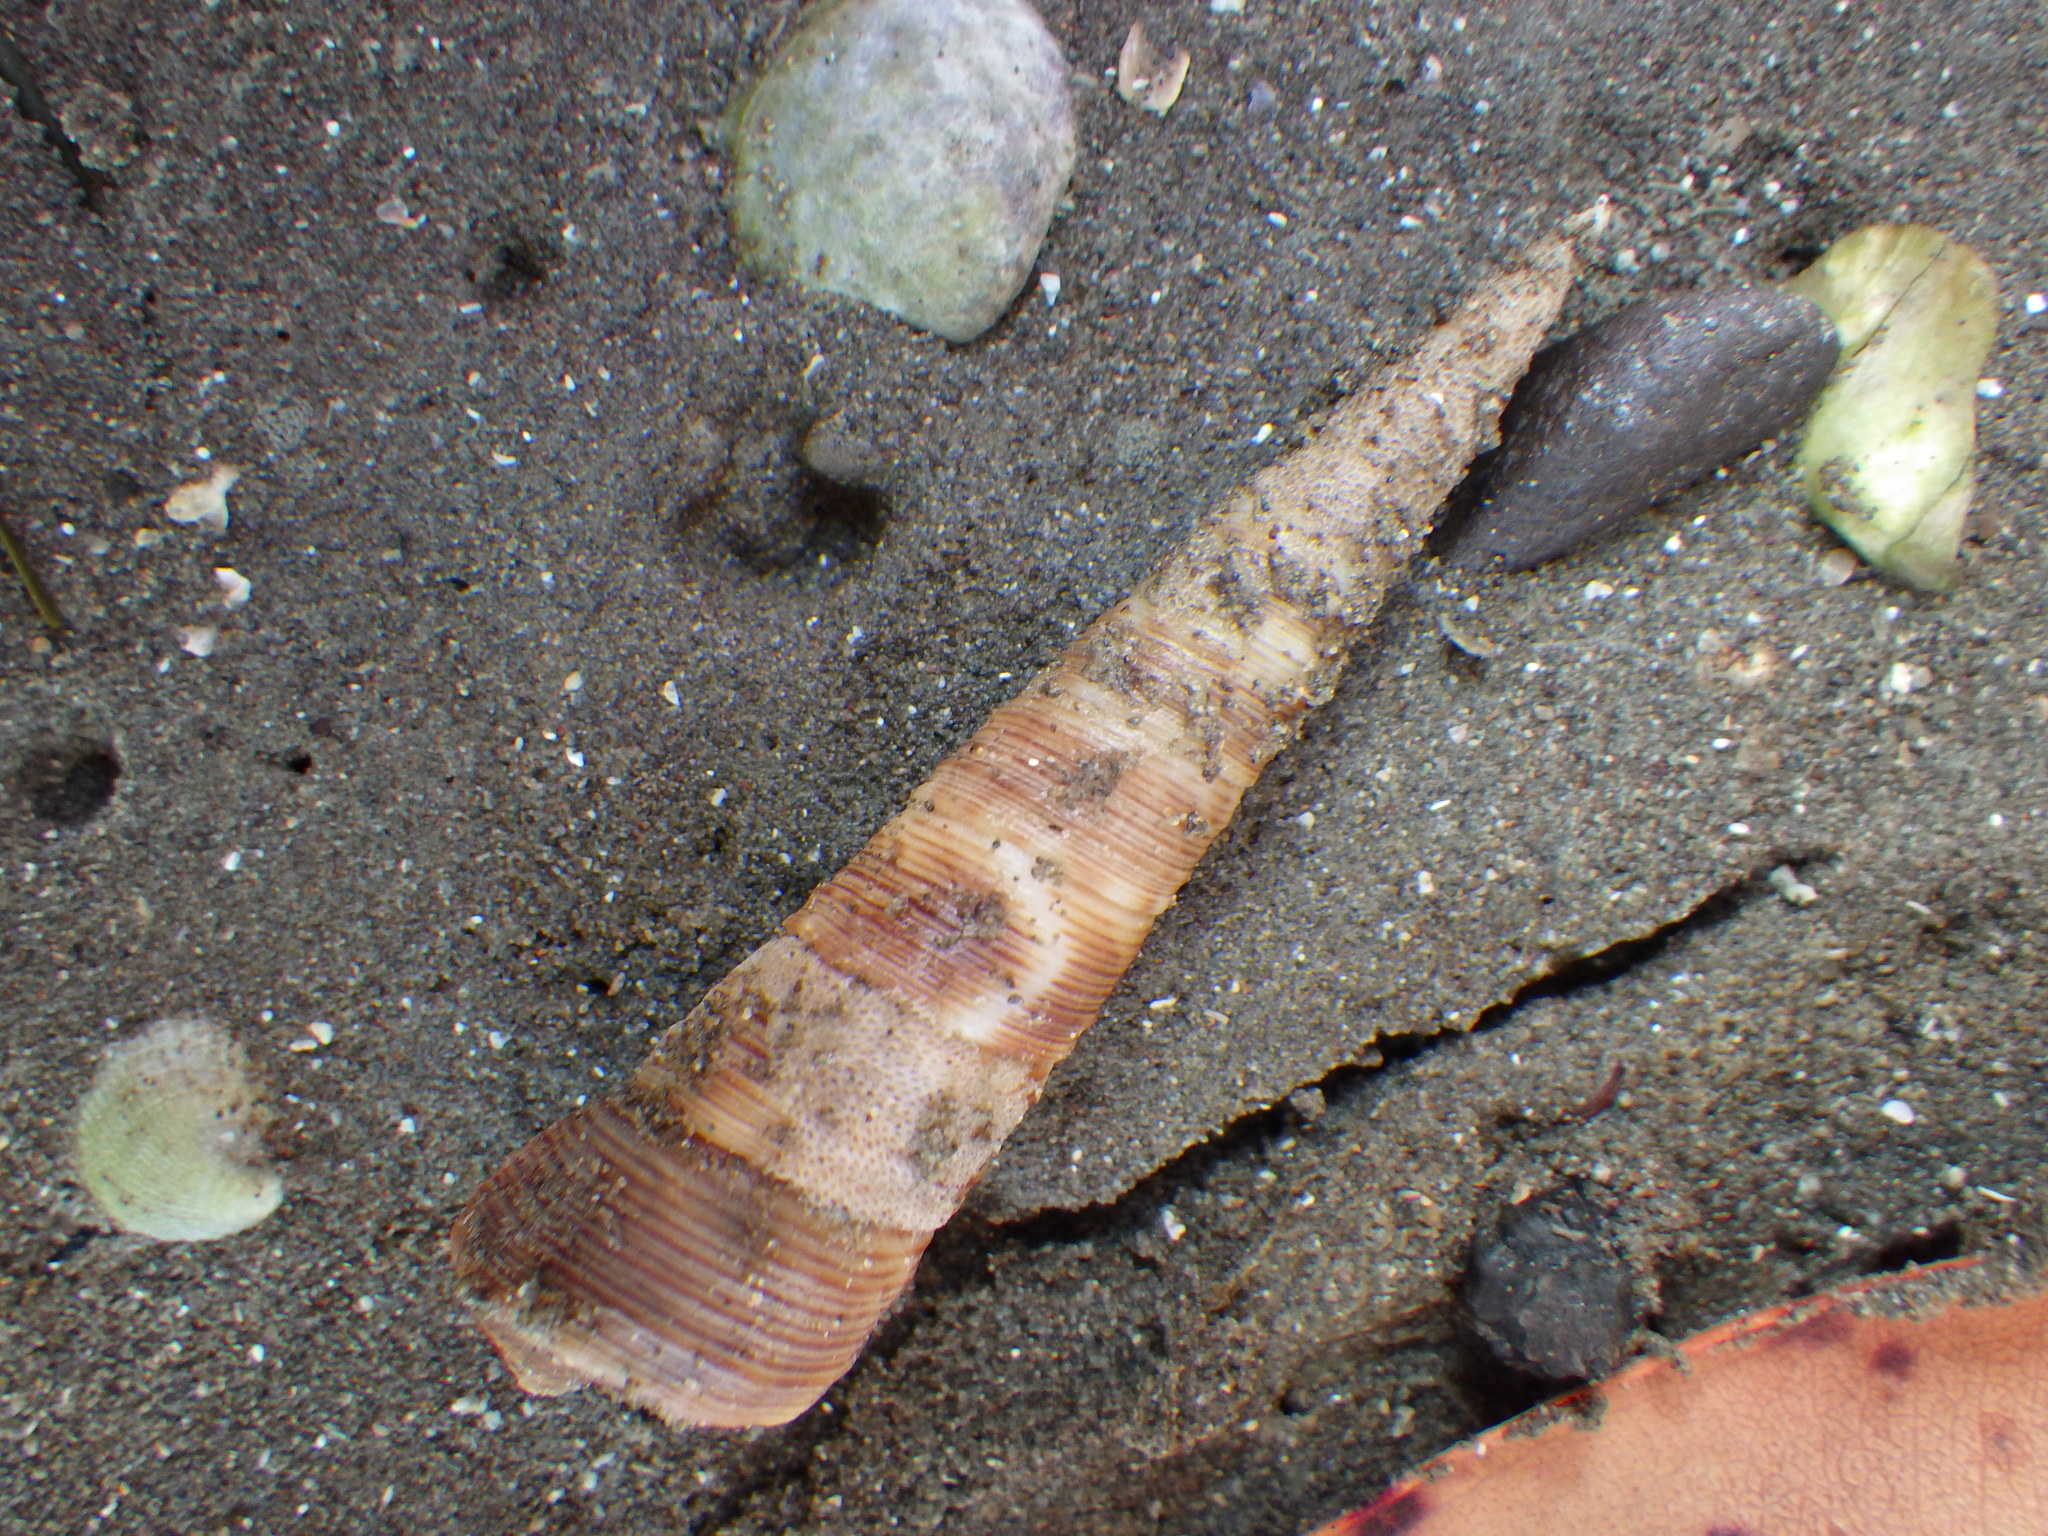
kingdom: Animalia
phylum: Mollusca
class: Gastropoda
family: Turritellidae
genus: Maoricolpus
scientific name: Maoricolpus roseus
